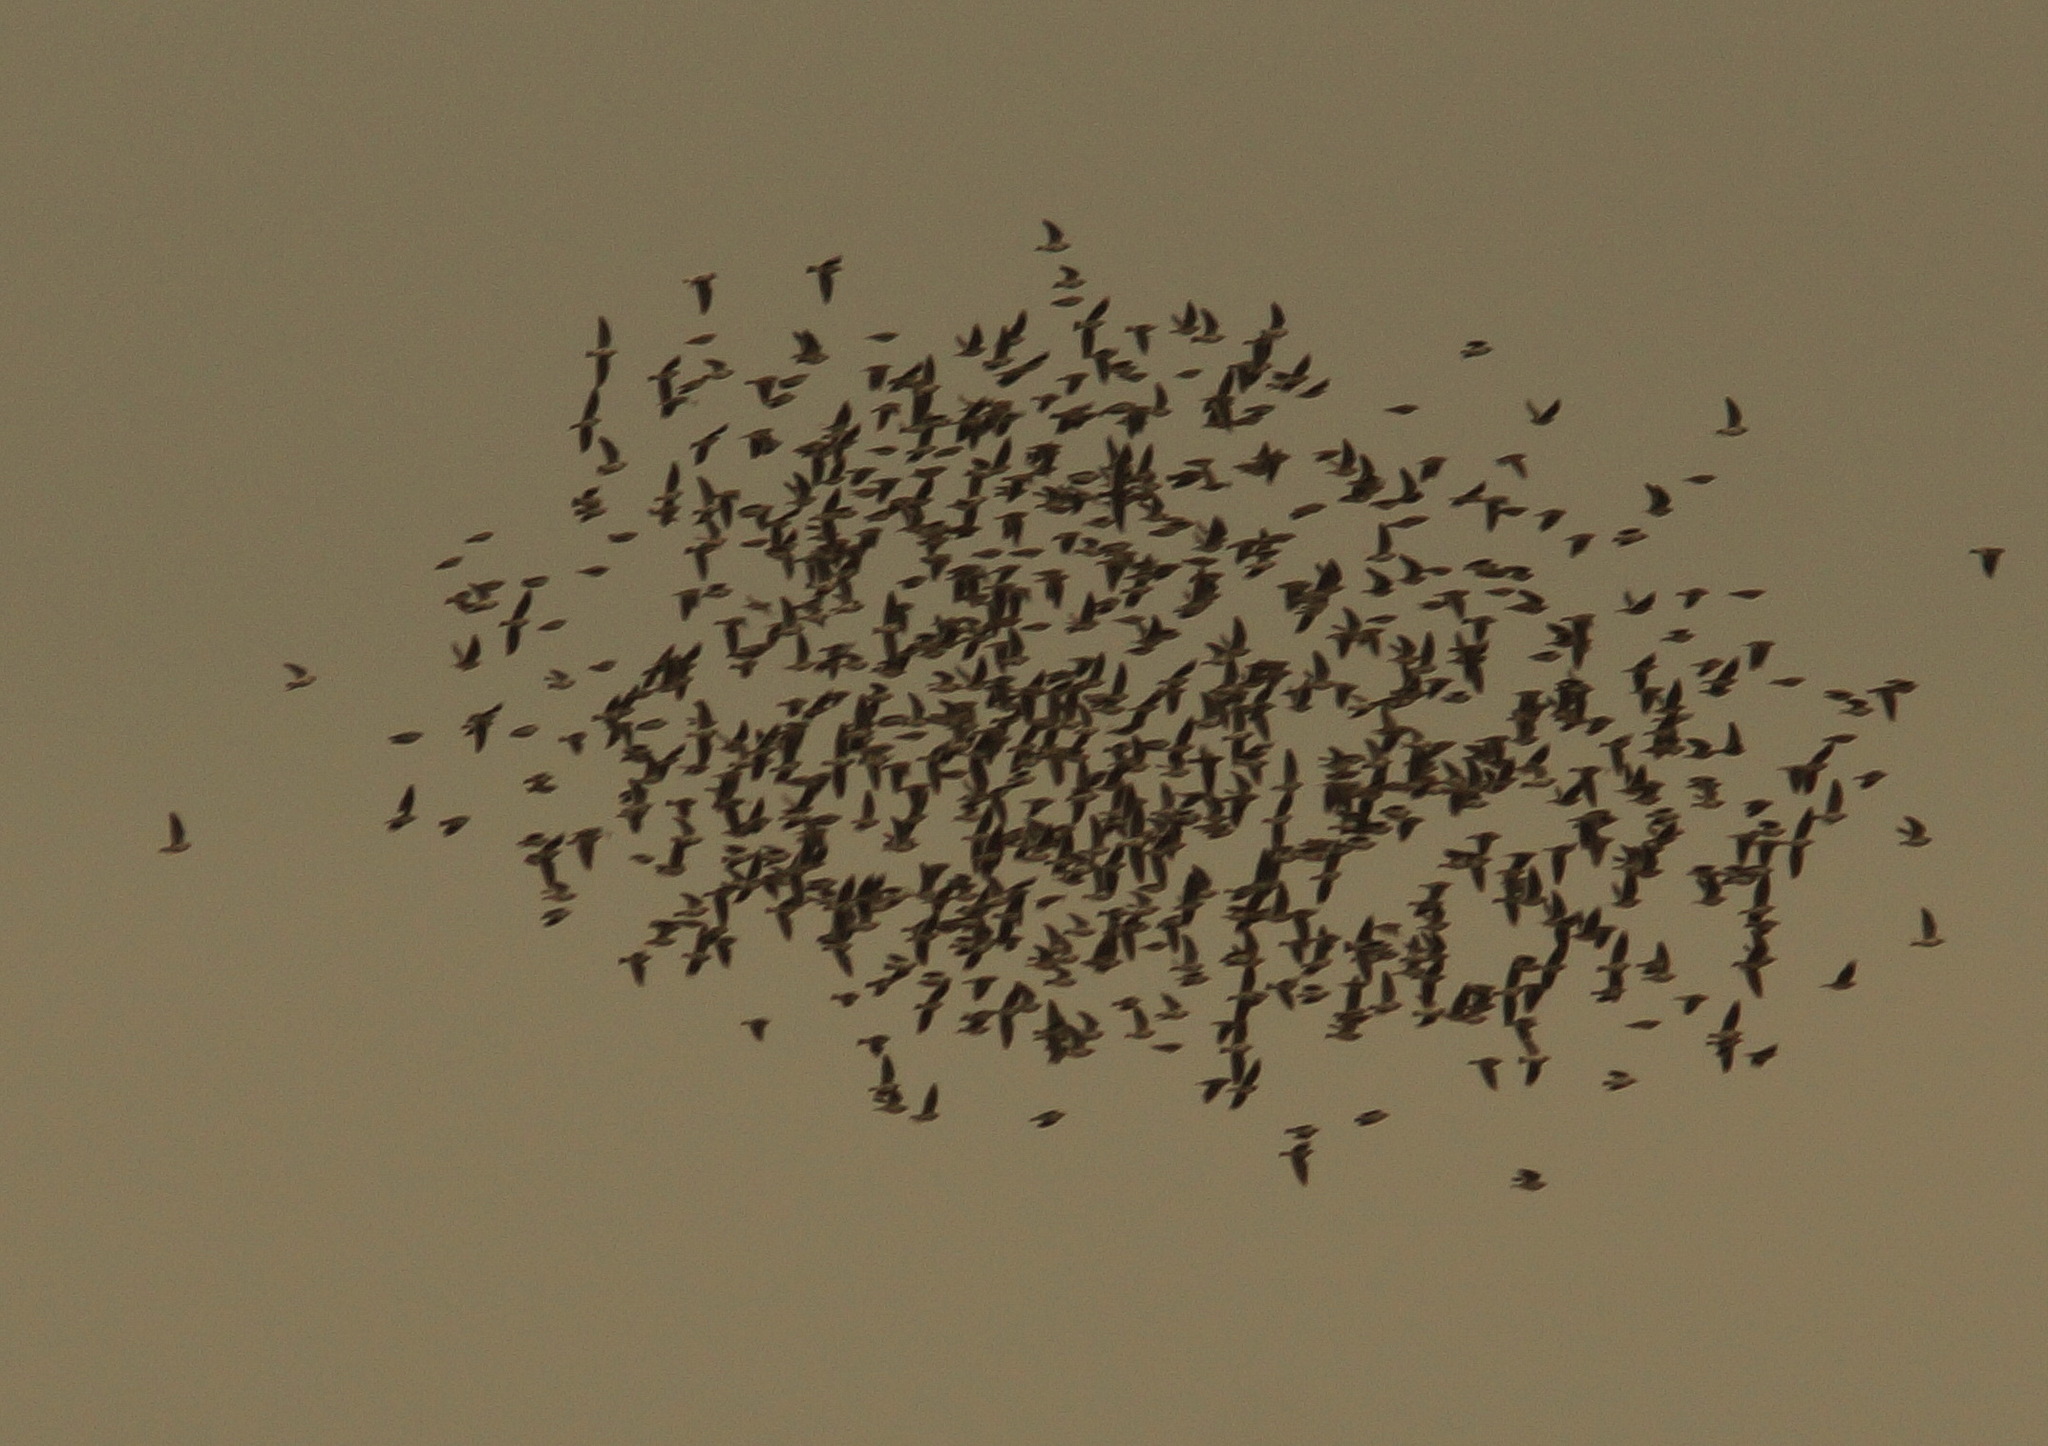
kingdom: Animalia
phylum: Chordata
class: Aves
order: Passeriformes
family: Alaudidae
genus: Melanocorypha
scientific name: Melanocorypha calandra
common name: Calandra lark
